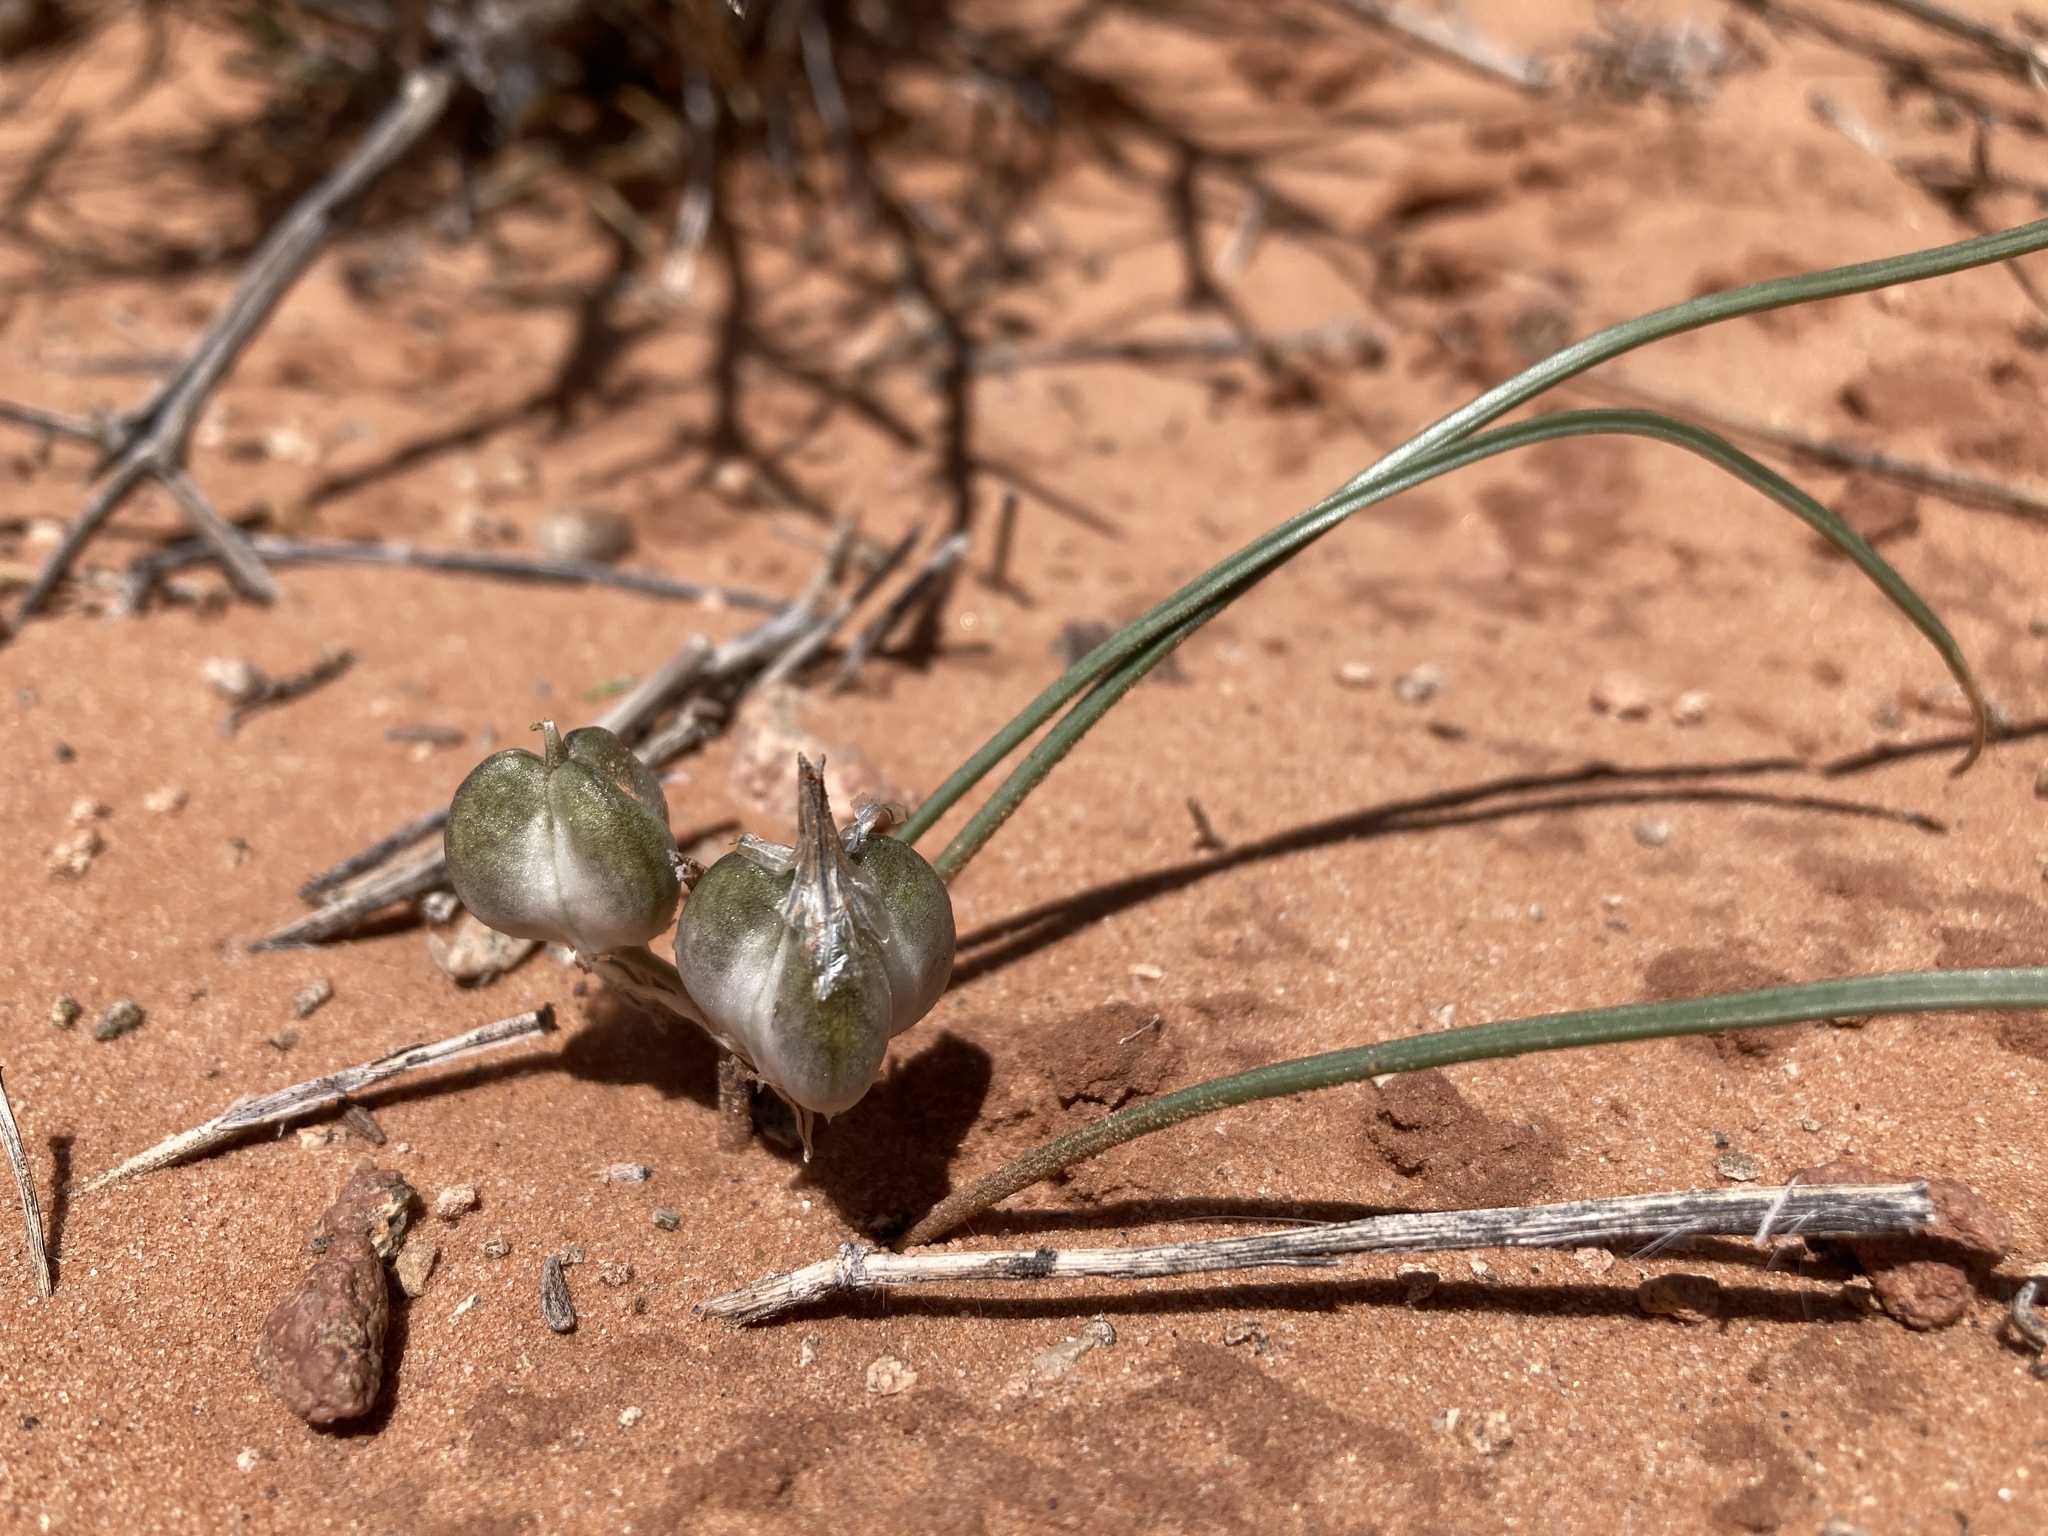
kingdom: Plantae
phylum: Tracheophyta
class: Liliopsida
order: Asparagales
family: Asparagaceae
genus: Androstephium
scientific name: Androstephium breviflorum
